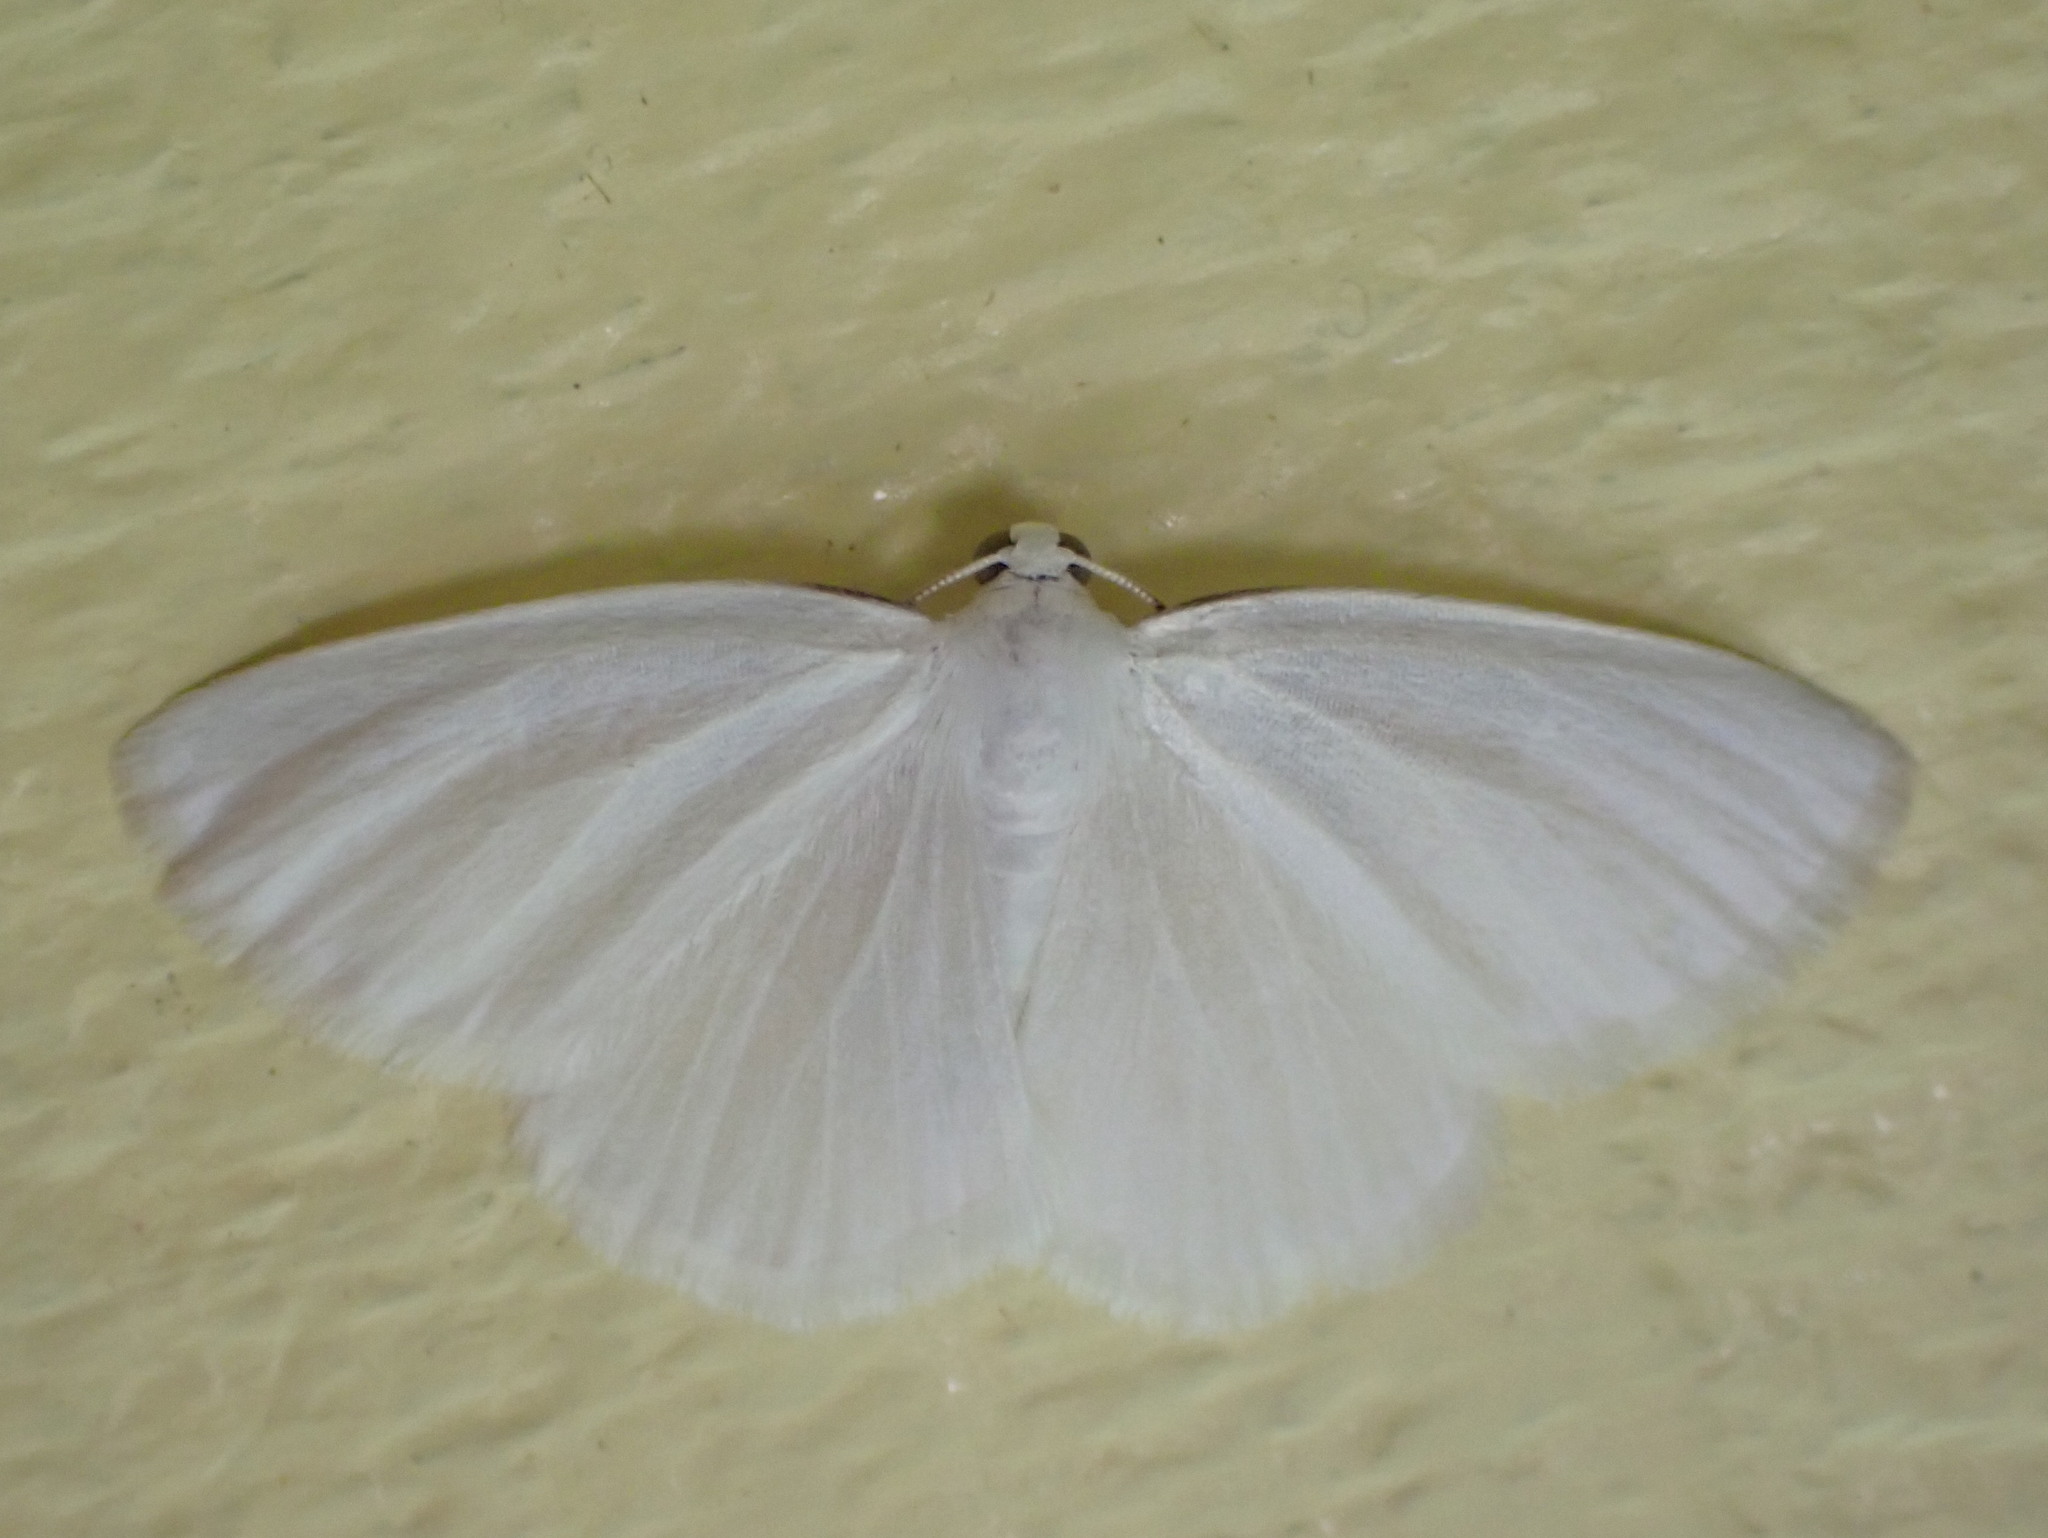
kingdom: Animalia
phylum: Arthropoda
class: Insecta
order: Lepidoptera
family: Geometridae
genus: Lomographa
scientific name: Lomographa vestaliata
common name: White spring moth
